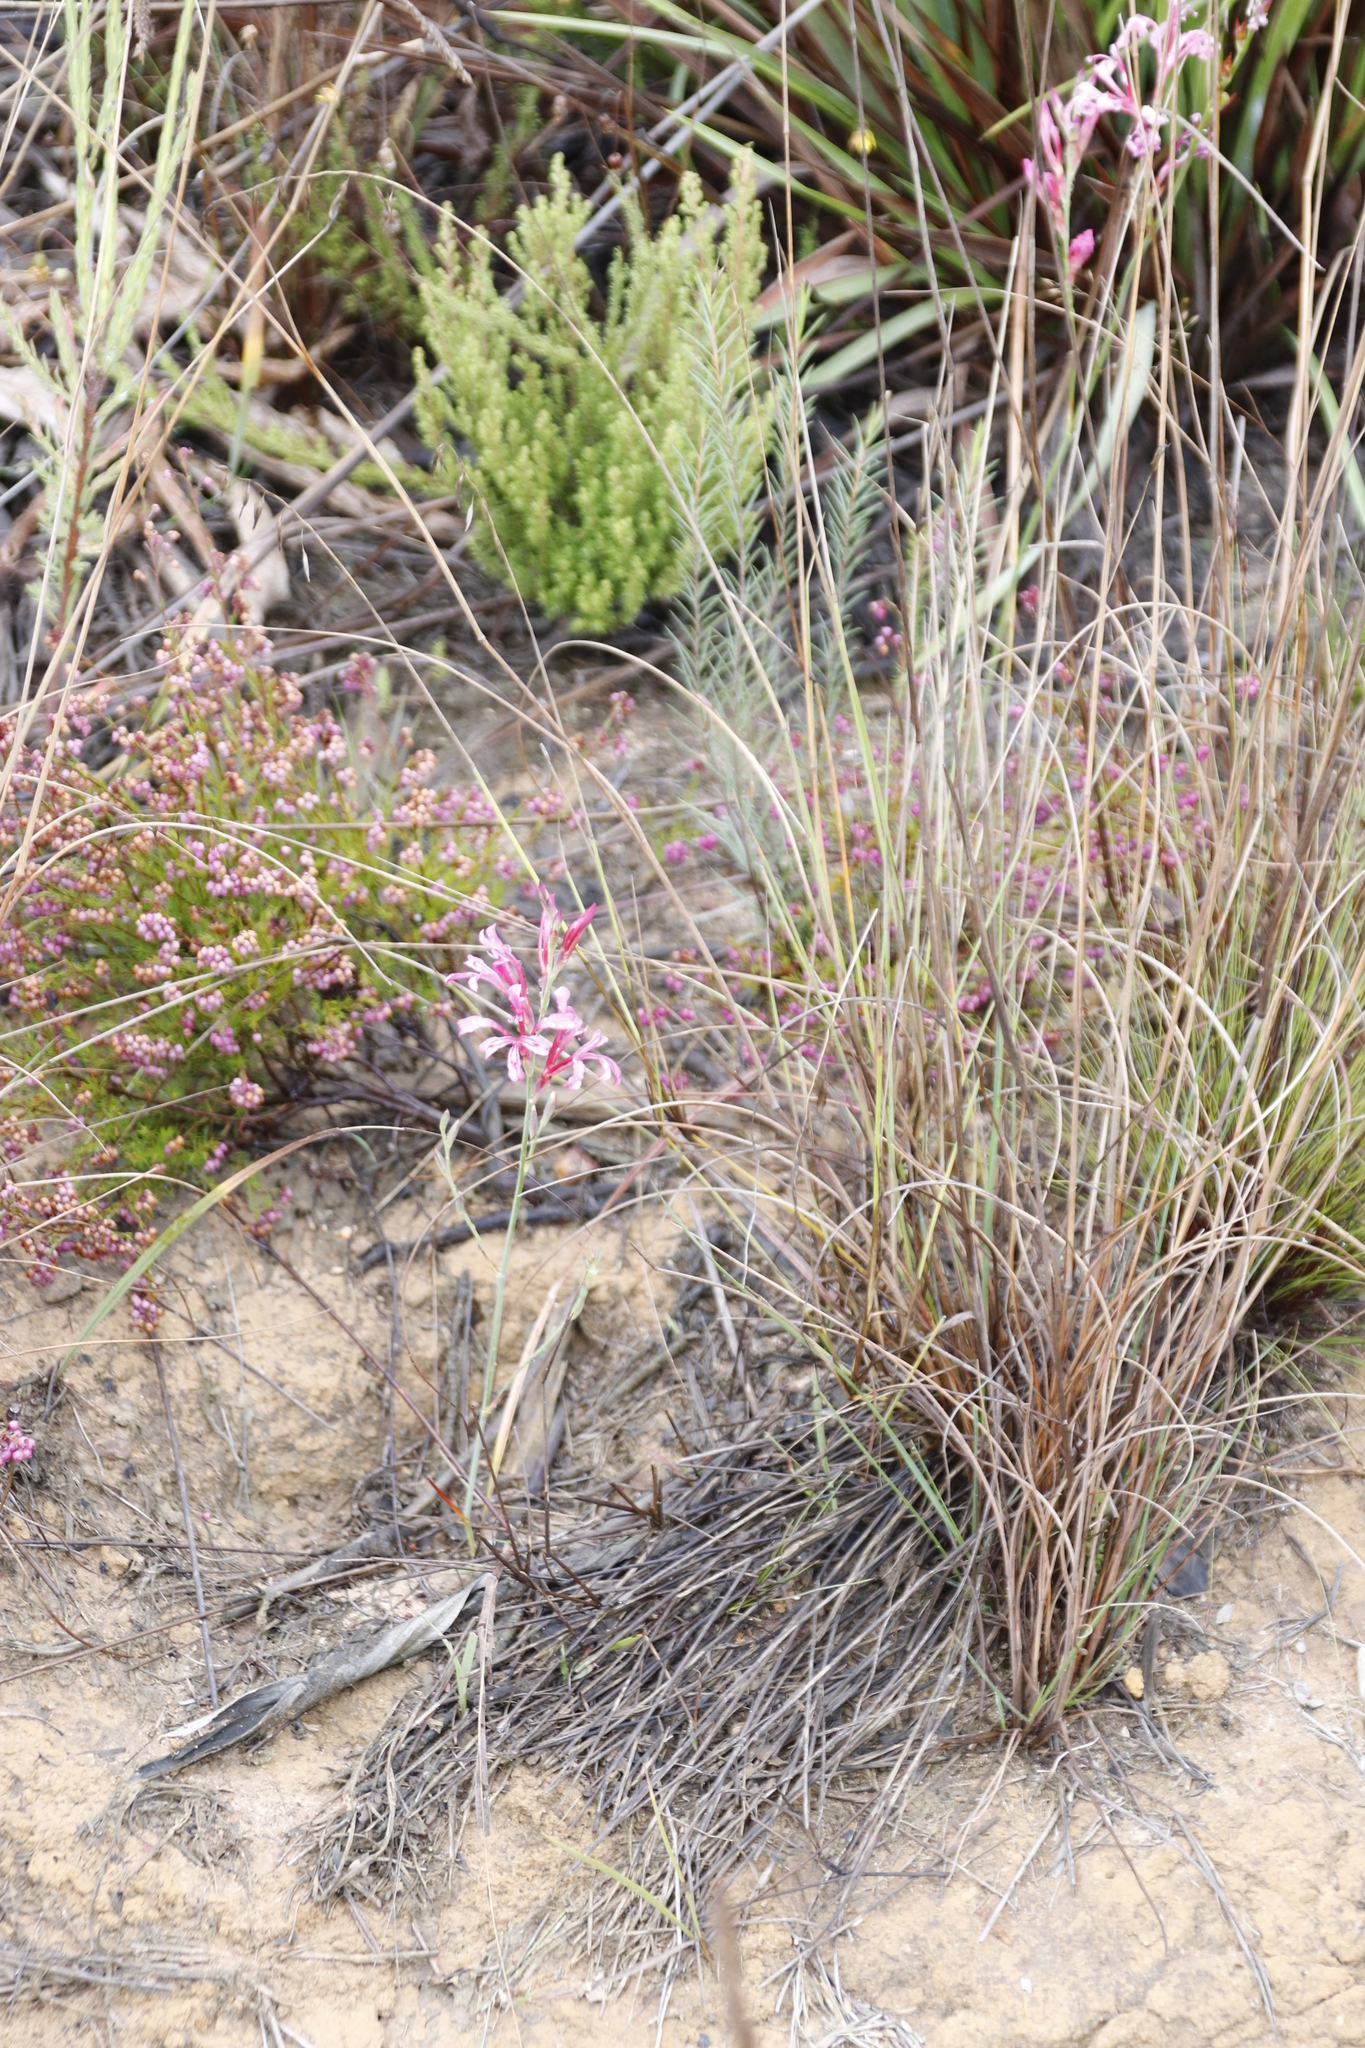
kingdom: Plantae
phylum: Tracheophyta
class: Liliopsida
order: Asparagales
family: Iridaceae
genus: Tritoniopsis
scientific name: Tritoniopsis ramosa
